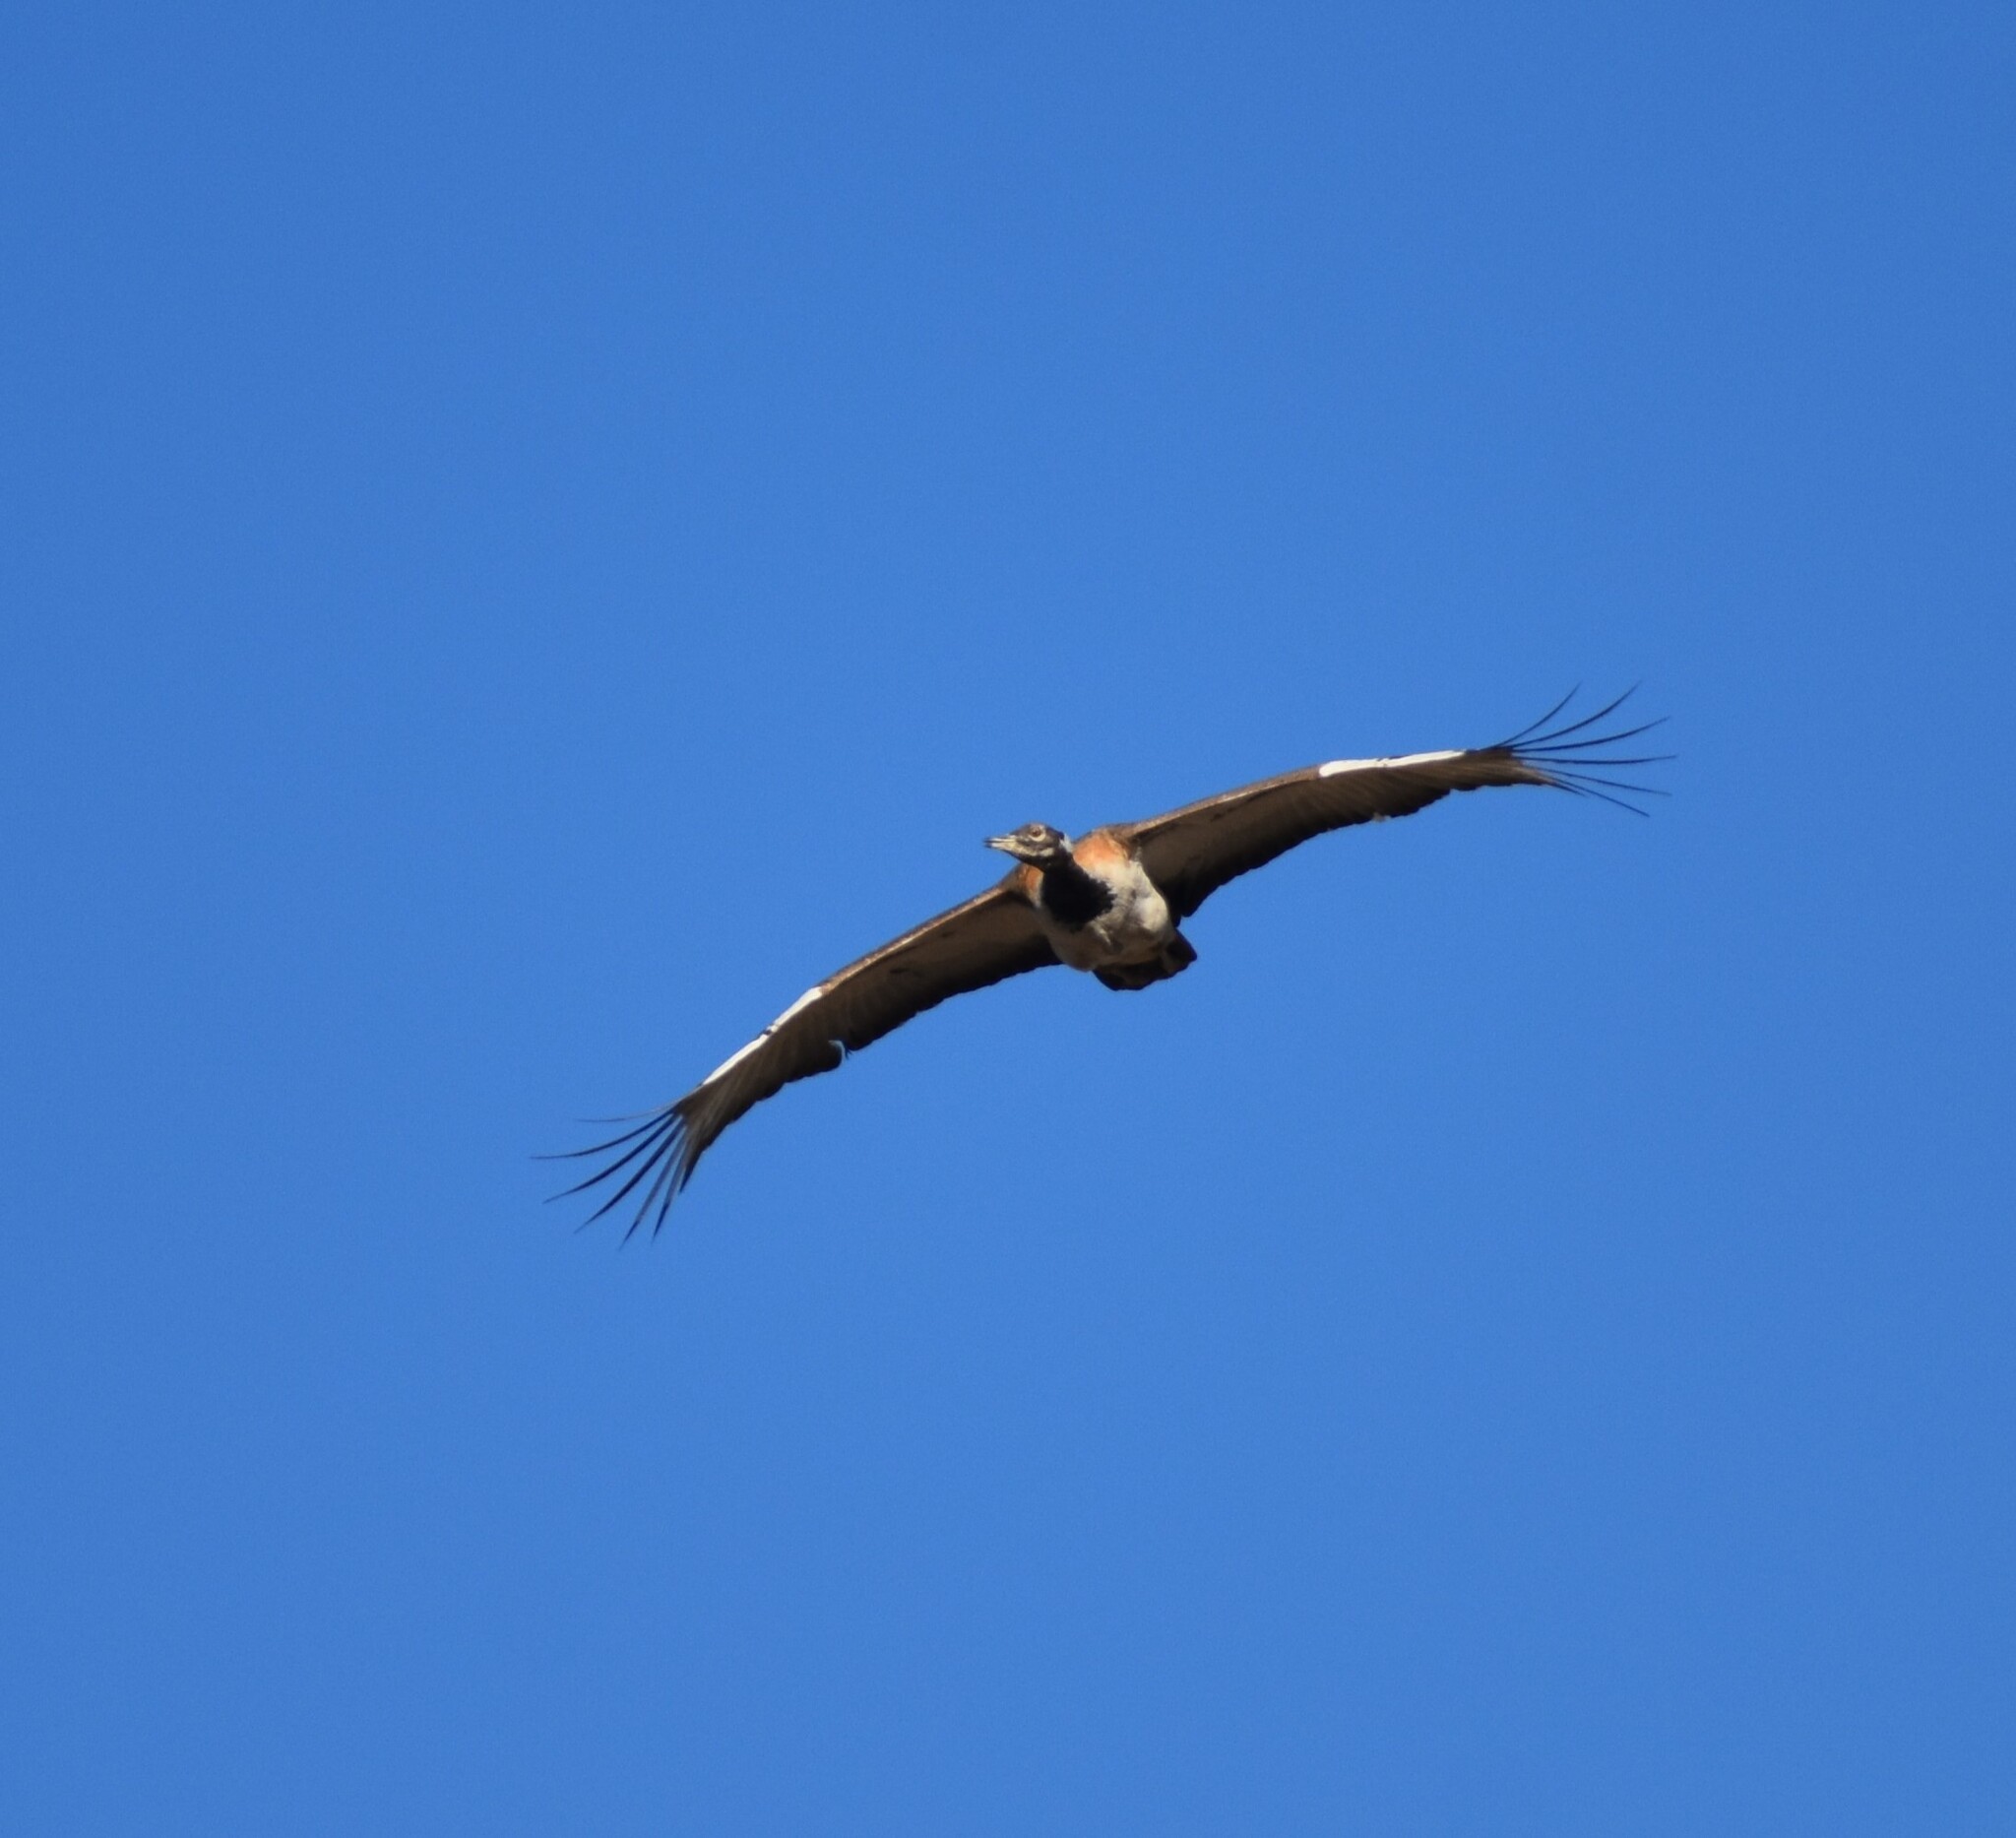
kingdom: Animalia
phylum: Chordata
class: Aves
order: Otidiformes
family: Otididae
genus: Neotis
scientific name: Neotis ludwigii
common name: Ludwig's bustard
